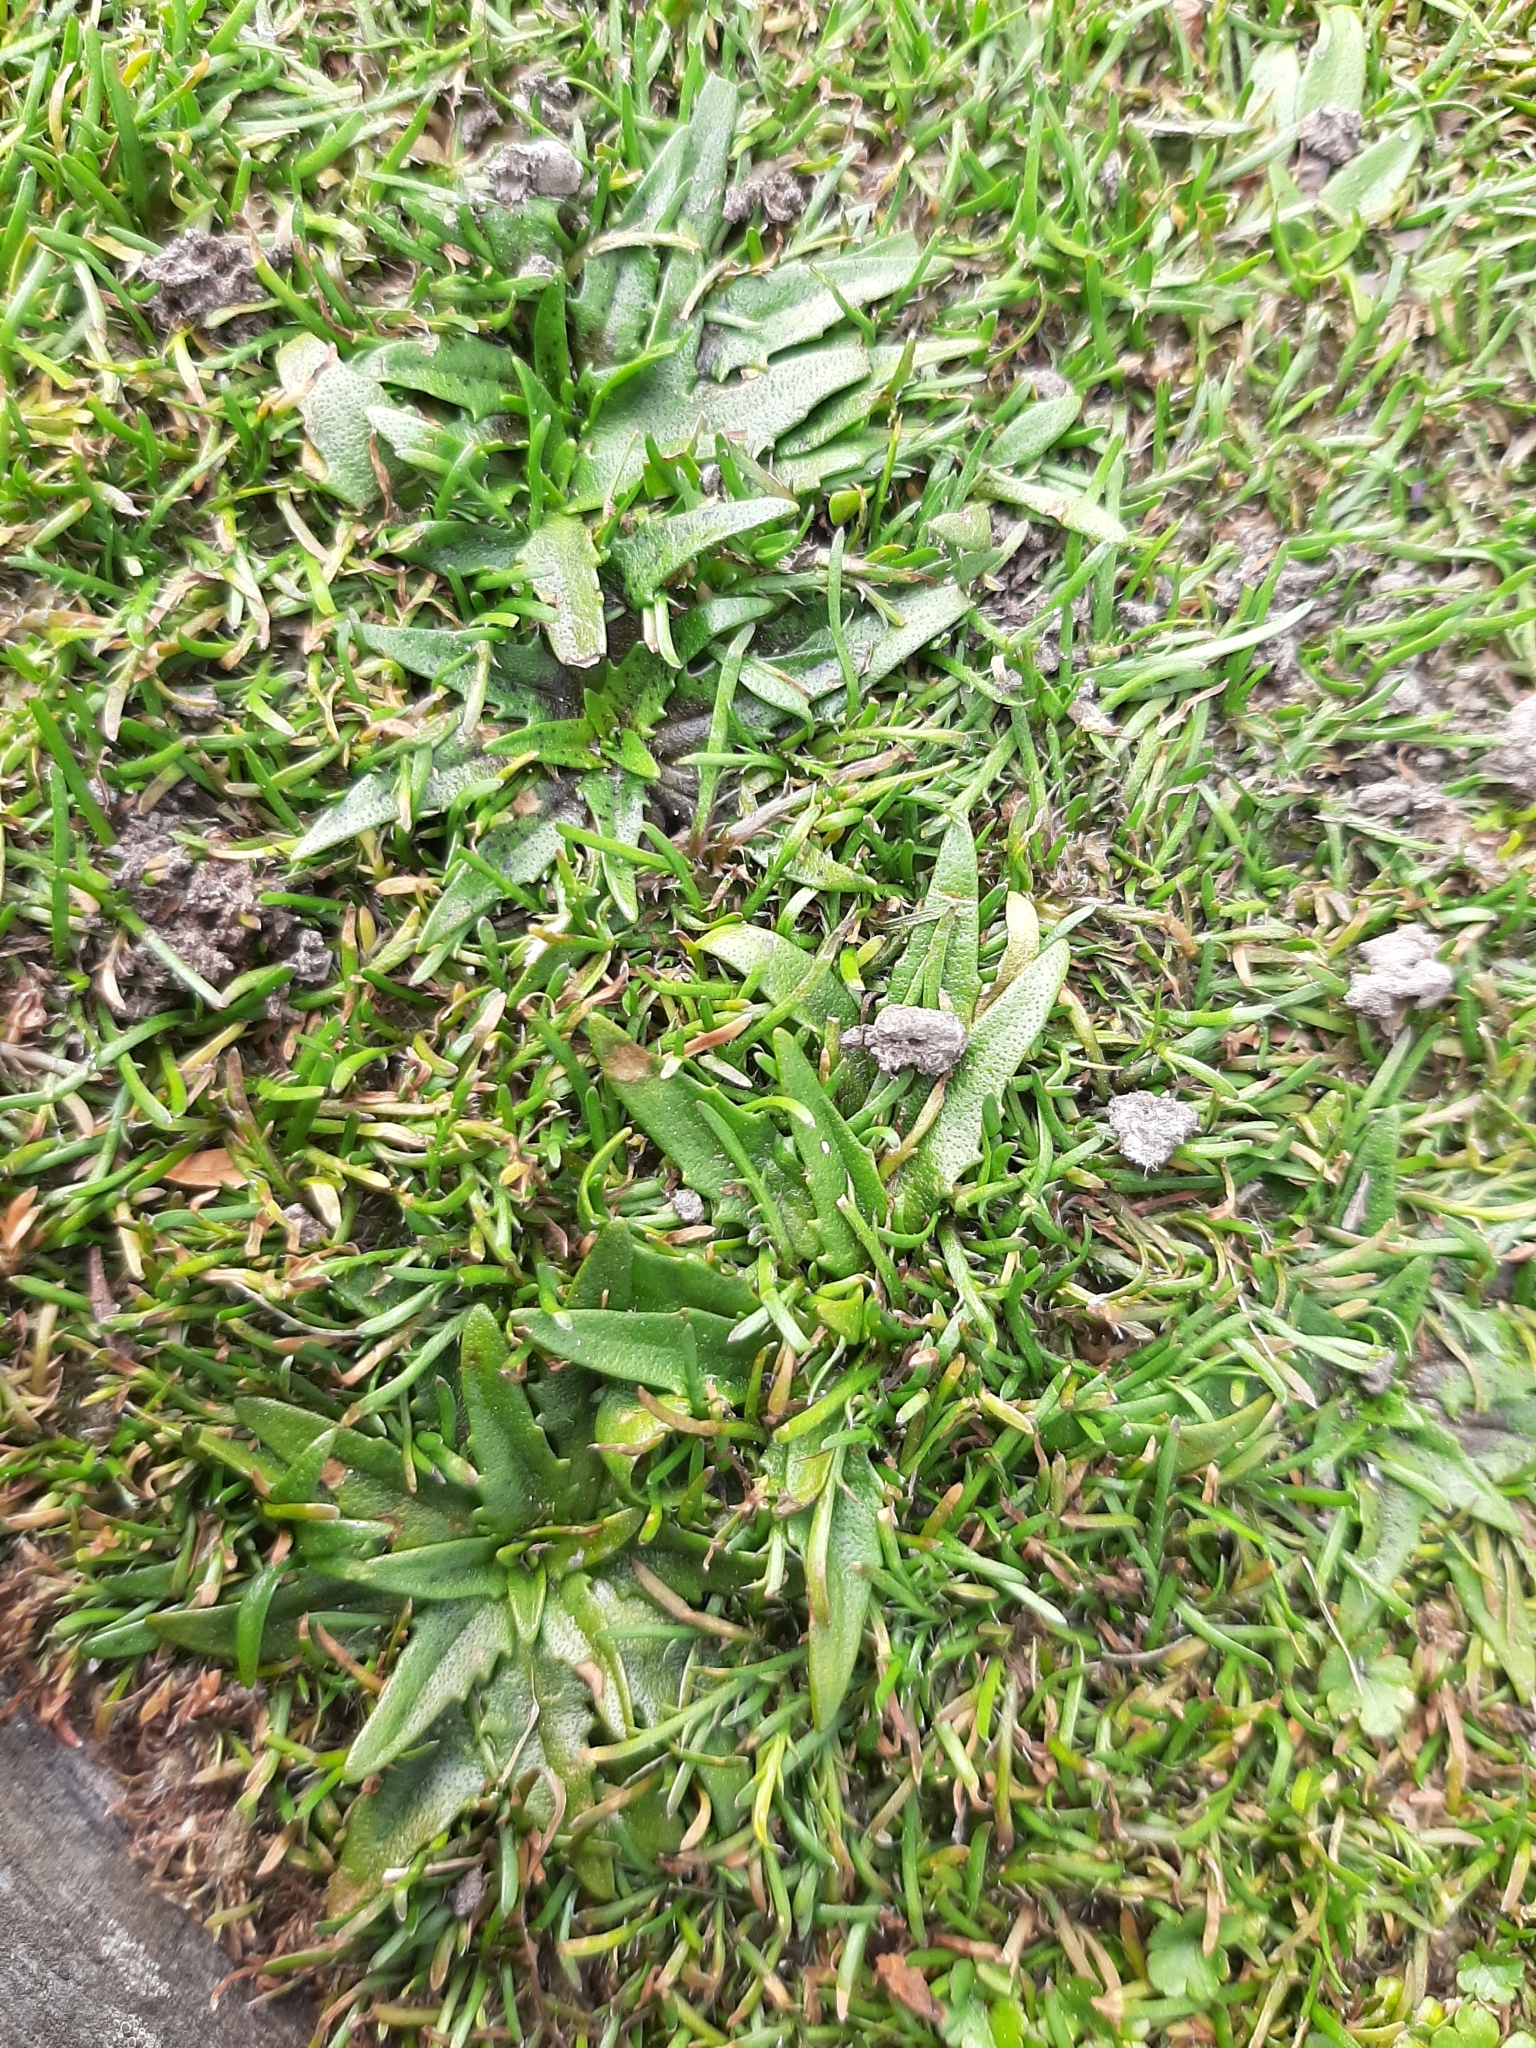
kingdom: Plantae
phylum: Tracheophyta
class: Magnoliopsida
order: Lamiales
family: Plantaginaceae
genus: Plantago
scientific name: Plantago triandra
